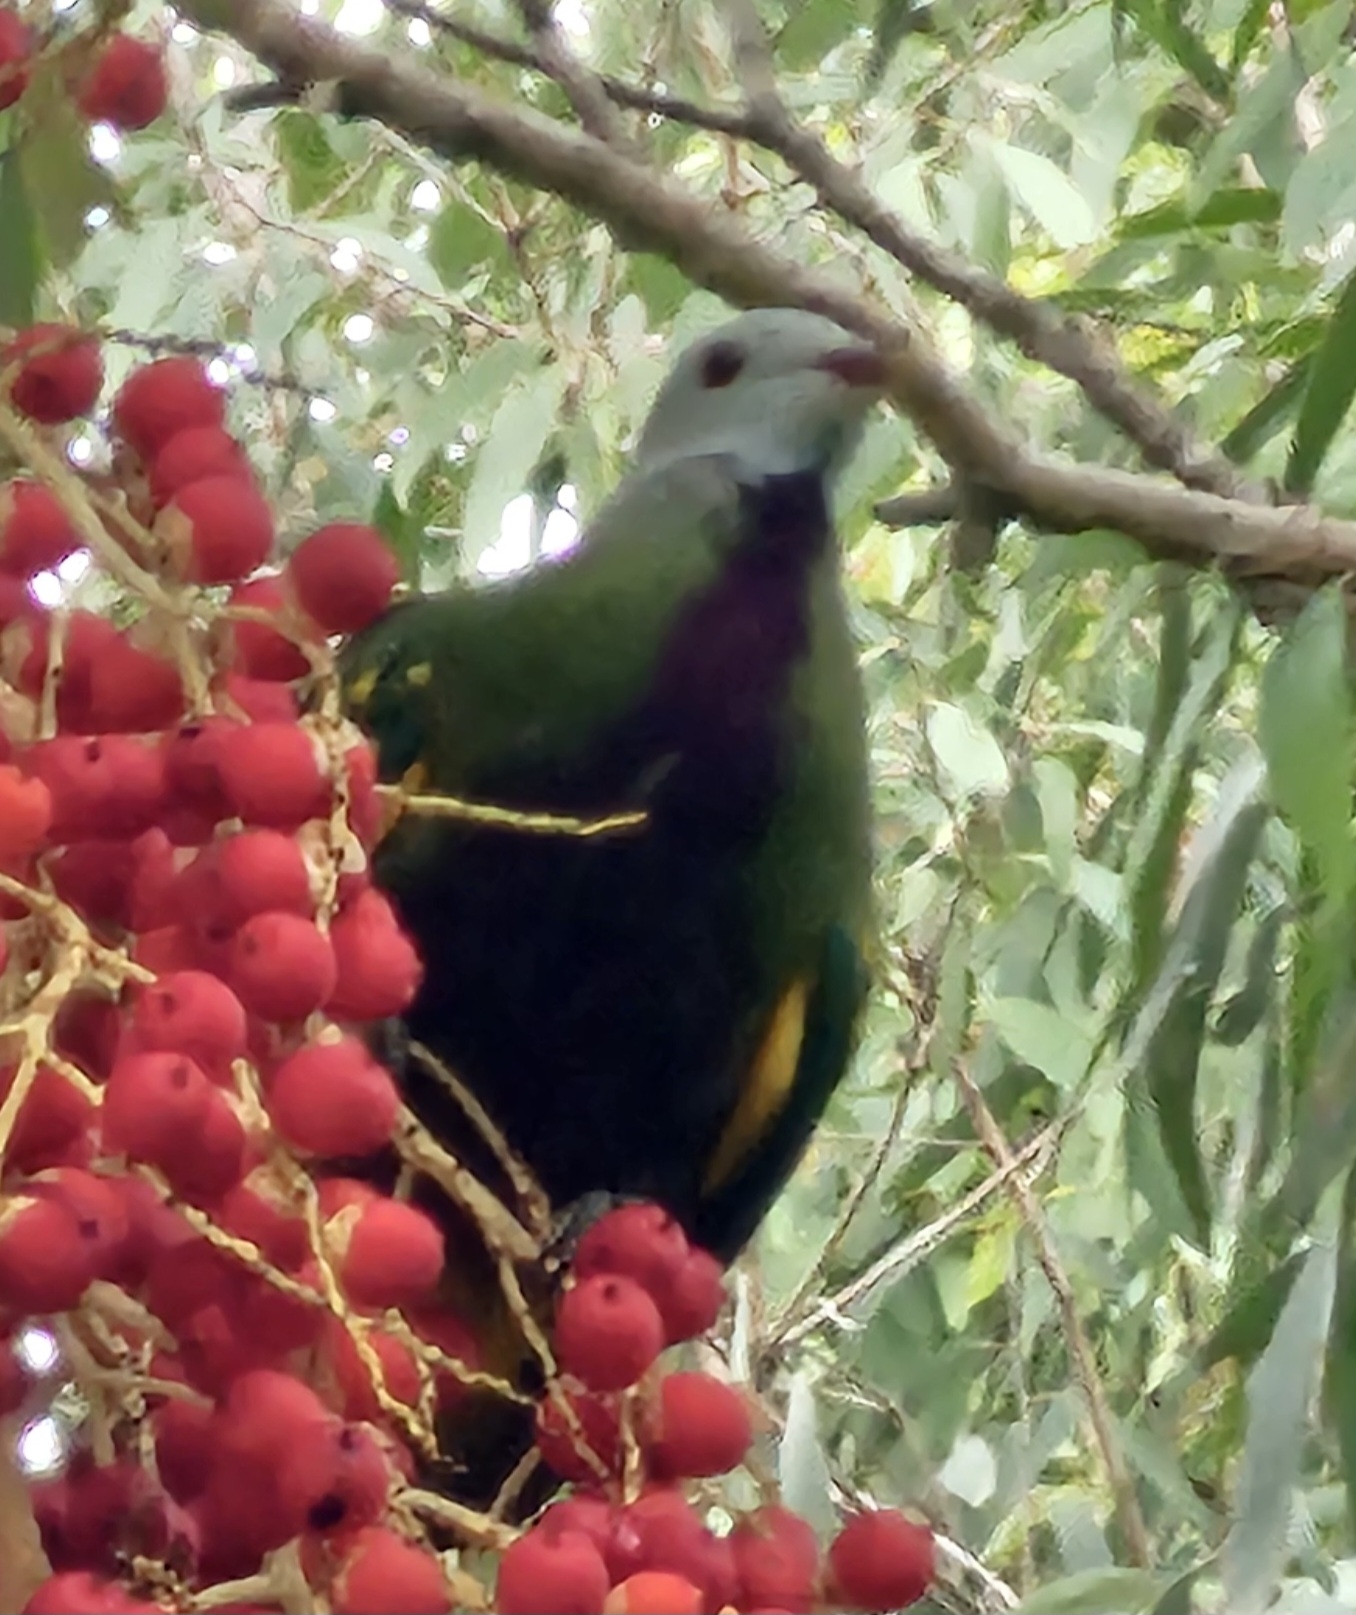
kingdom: Animalia
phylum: Chordata
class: Aves
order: Columbiformes
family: Columbidae
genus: Ptilinopus
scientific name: Ptilinopus magnificus
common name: Wompoo fruit dove
